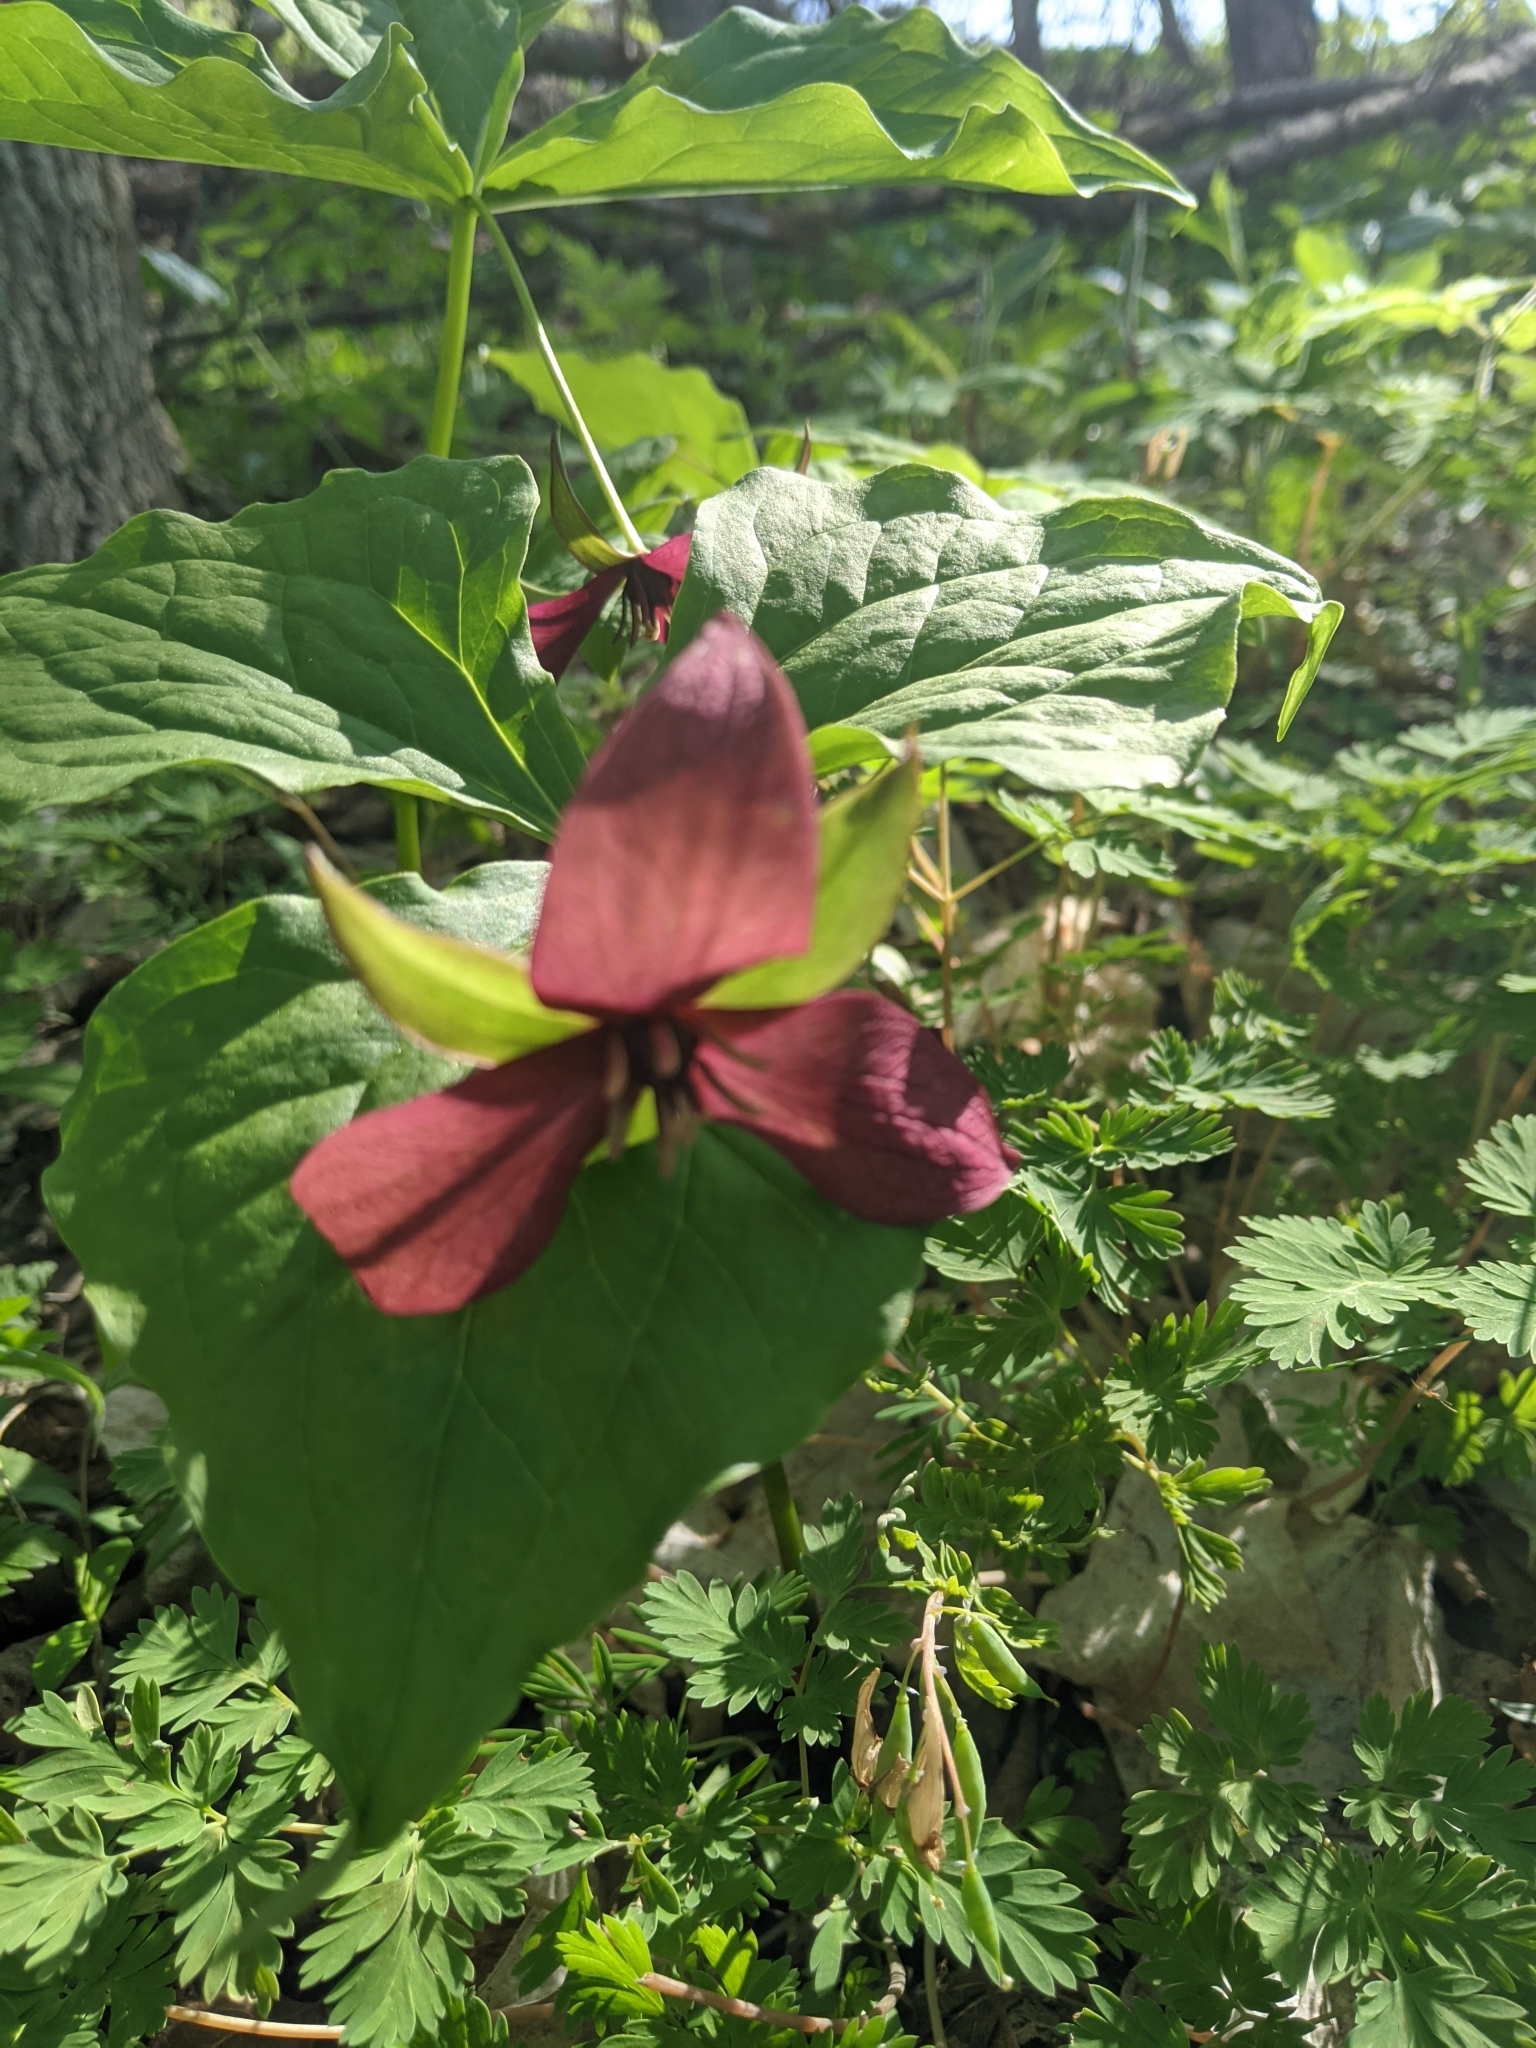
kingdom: Plantae
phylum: Tracheophyta
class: Liliopsida
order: Liliales
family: Melanthiaceae
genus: Trillium
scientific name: Trillium erectum
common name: Purple trillium
